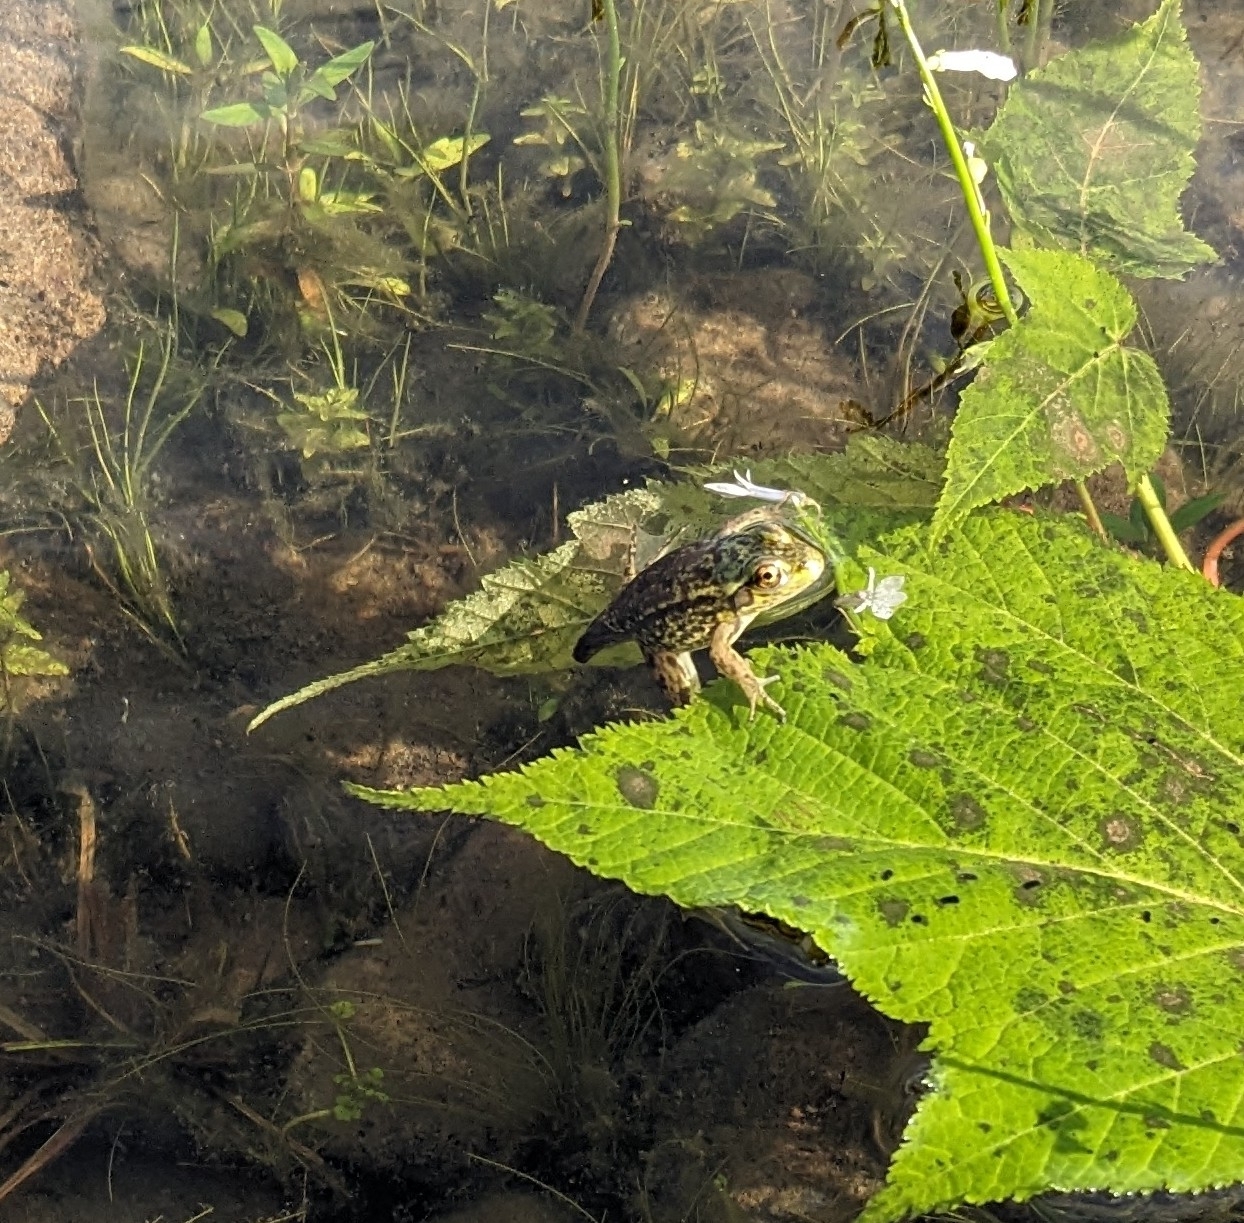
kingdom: Animalia
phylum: Chordata
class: Amphibia
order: Anura
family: Ranidae
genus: Lithobates
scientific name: Lithobates septentrionalis
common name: Mink frog
